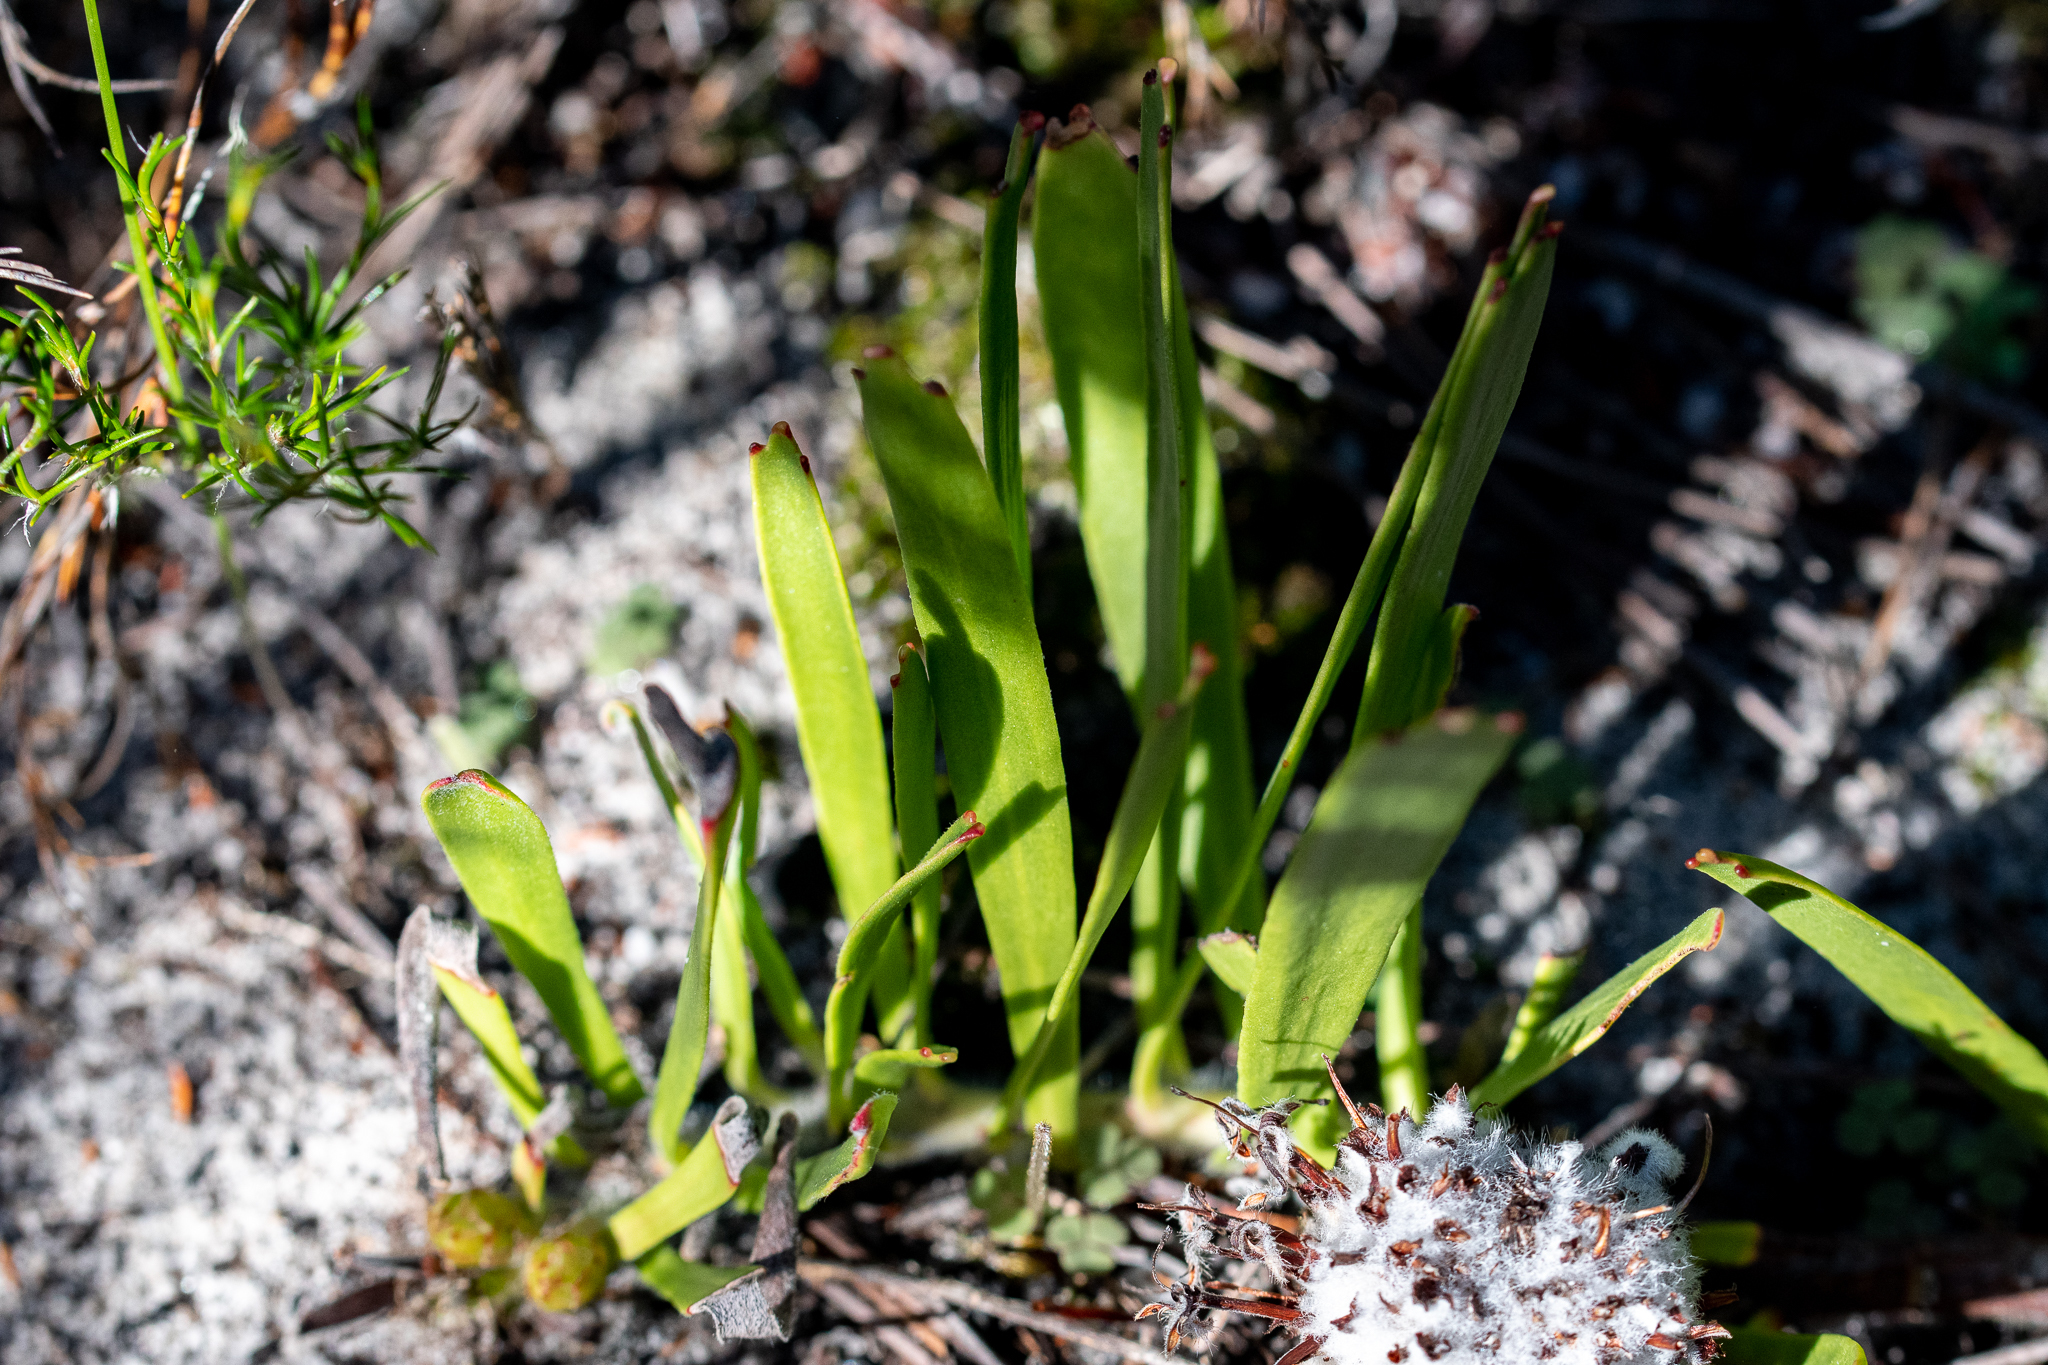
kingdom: Plantae
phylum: Tracheophyta
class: Magnoliopsida
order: Proteales
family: Proteaceae
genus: Leucospermum
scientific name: Leucospermum hypophyllocarpodendron
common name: Snakestem pincushion
